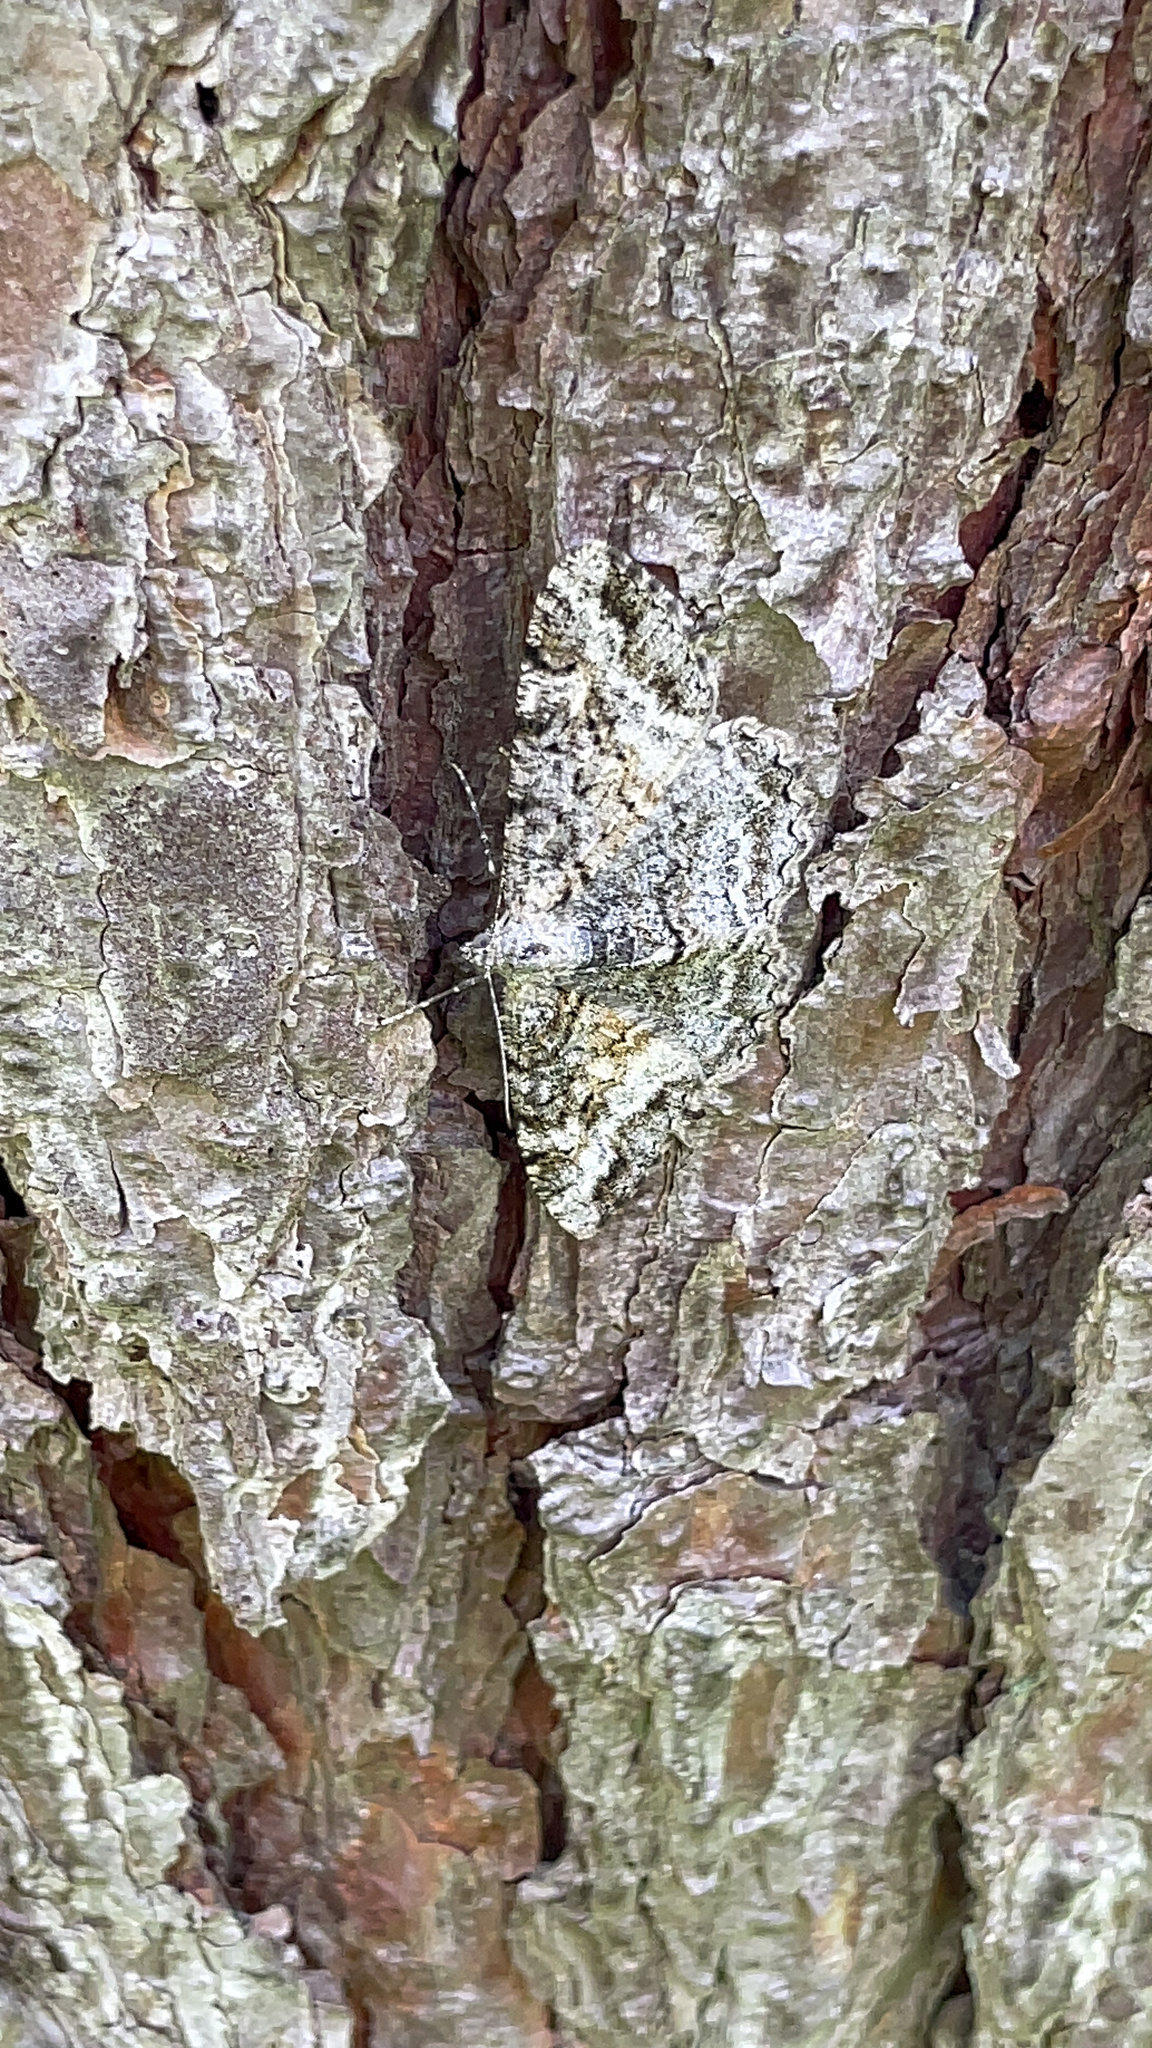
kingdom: Animalia
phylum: Arthropoda
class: Insecta
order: Lepidoptera
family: Geometridae
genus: Alcis
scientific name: Alcis repandata
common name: Mottled beauty
